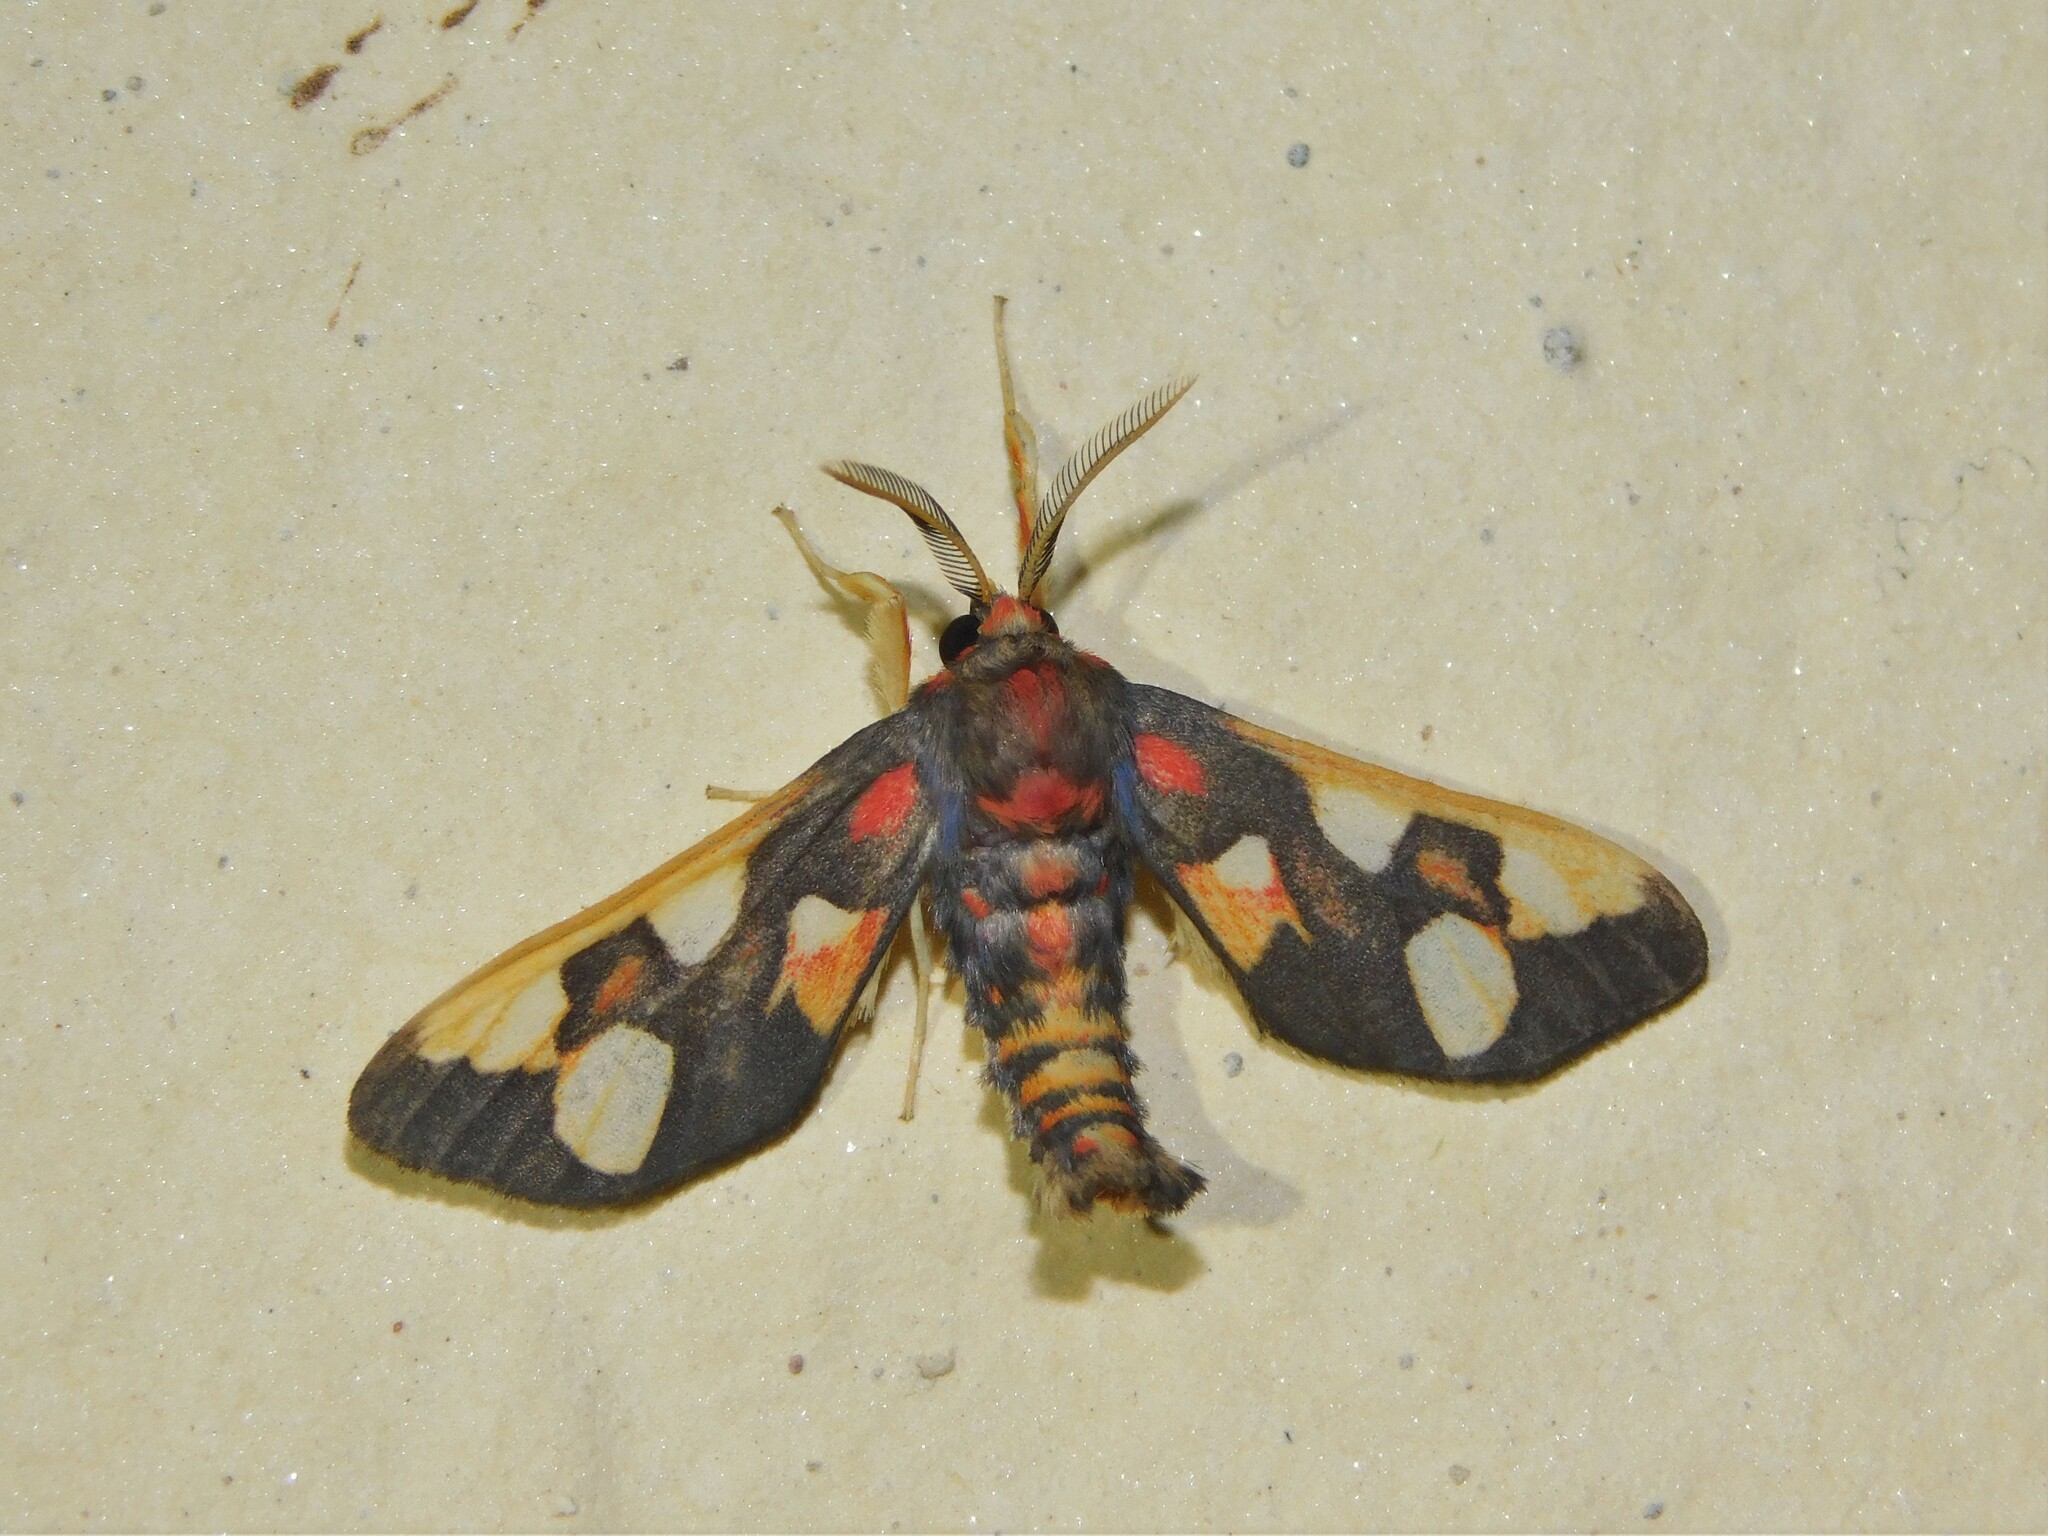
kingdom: Animalia
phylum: Arthropoda
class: Insecta
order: Lepidoptera
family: Erebidae
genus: Anapisa
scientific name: Anapisa histrio
